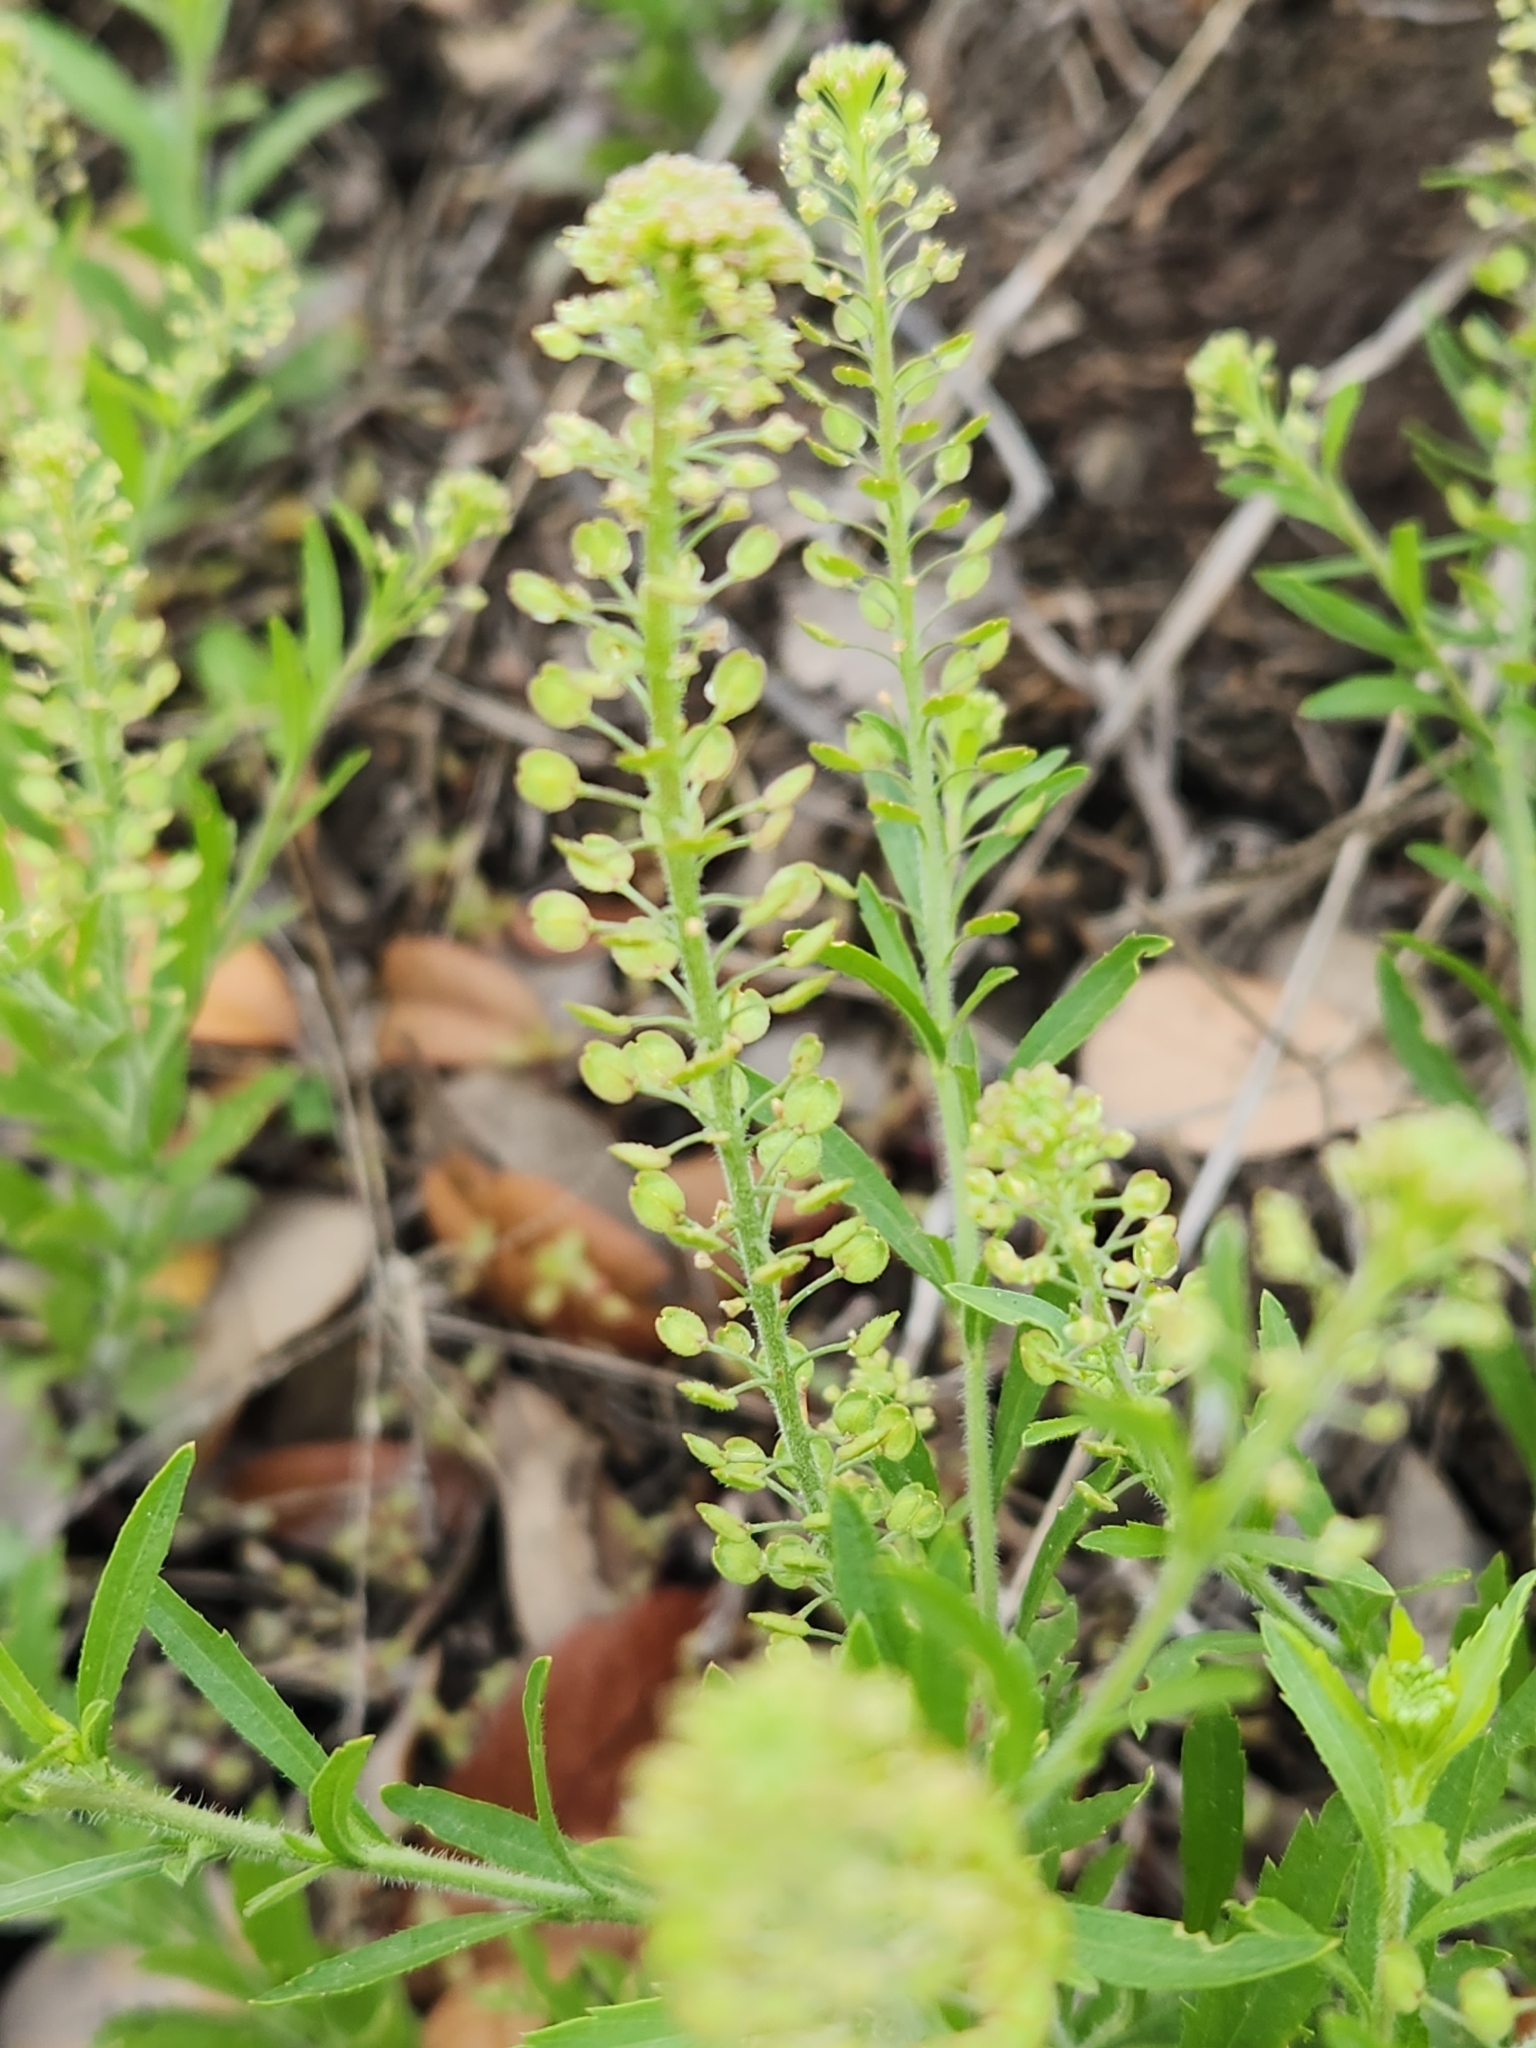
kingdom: Plantae
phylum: Tracheophyta
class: Magnoliopsida
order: Brassicales
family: Brassicaceae
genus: Lepidium
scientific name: Lepidium virginicum
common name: Least pepperwort
